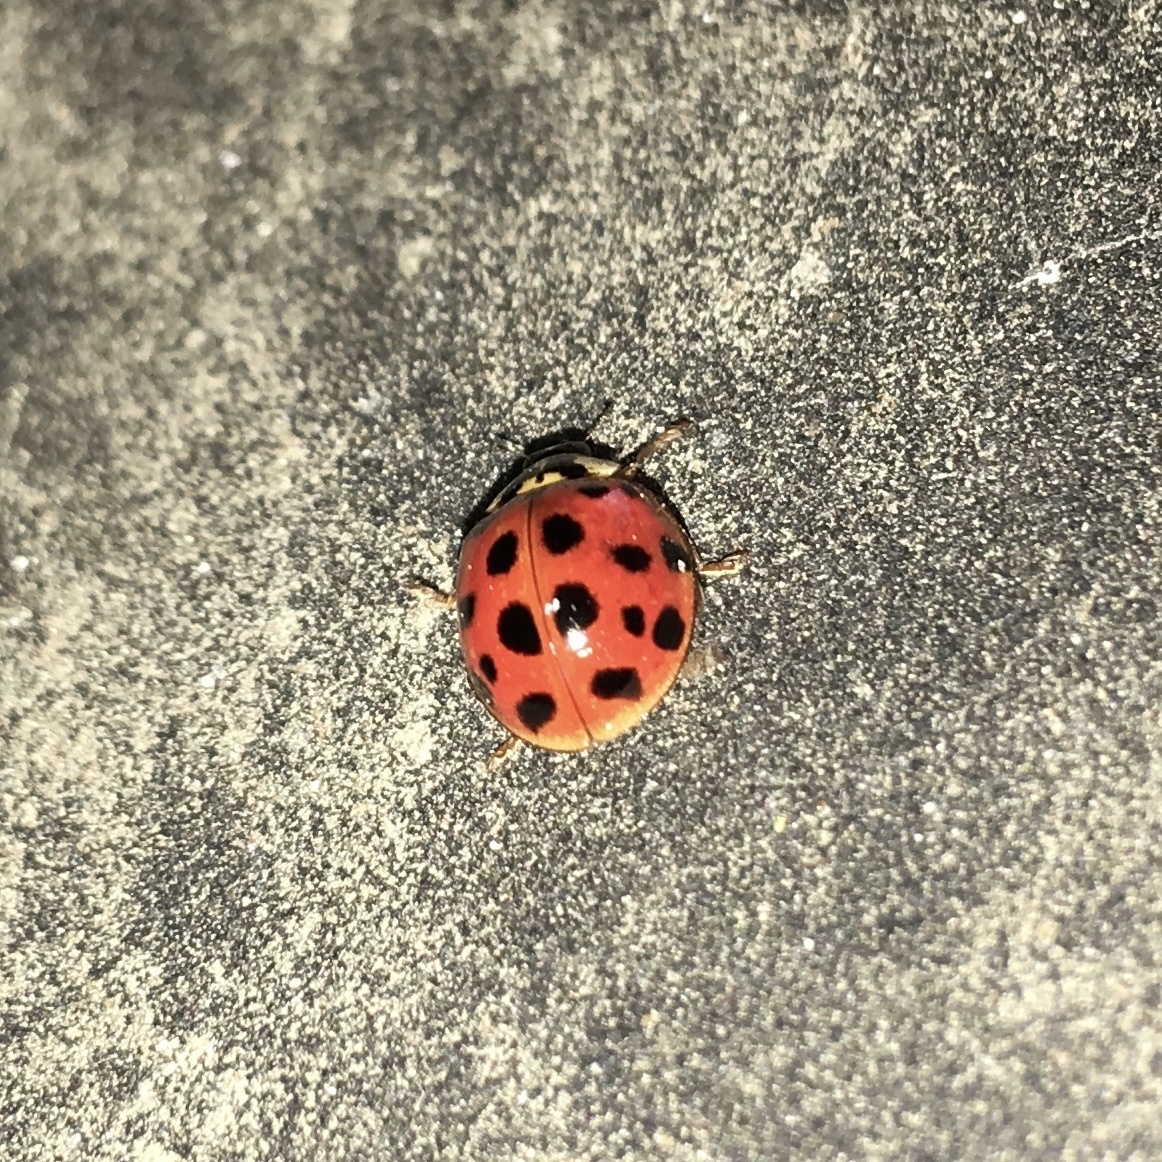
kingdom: Animalia
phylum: Arthropoda
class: Insecta
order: Coleoptera
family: Coccinellidae
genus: Harmonia
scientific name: Harmonia axyridis
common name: Harlequin ladybird
